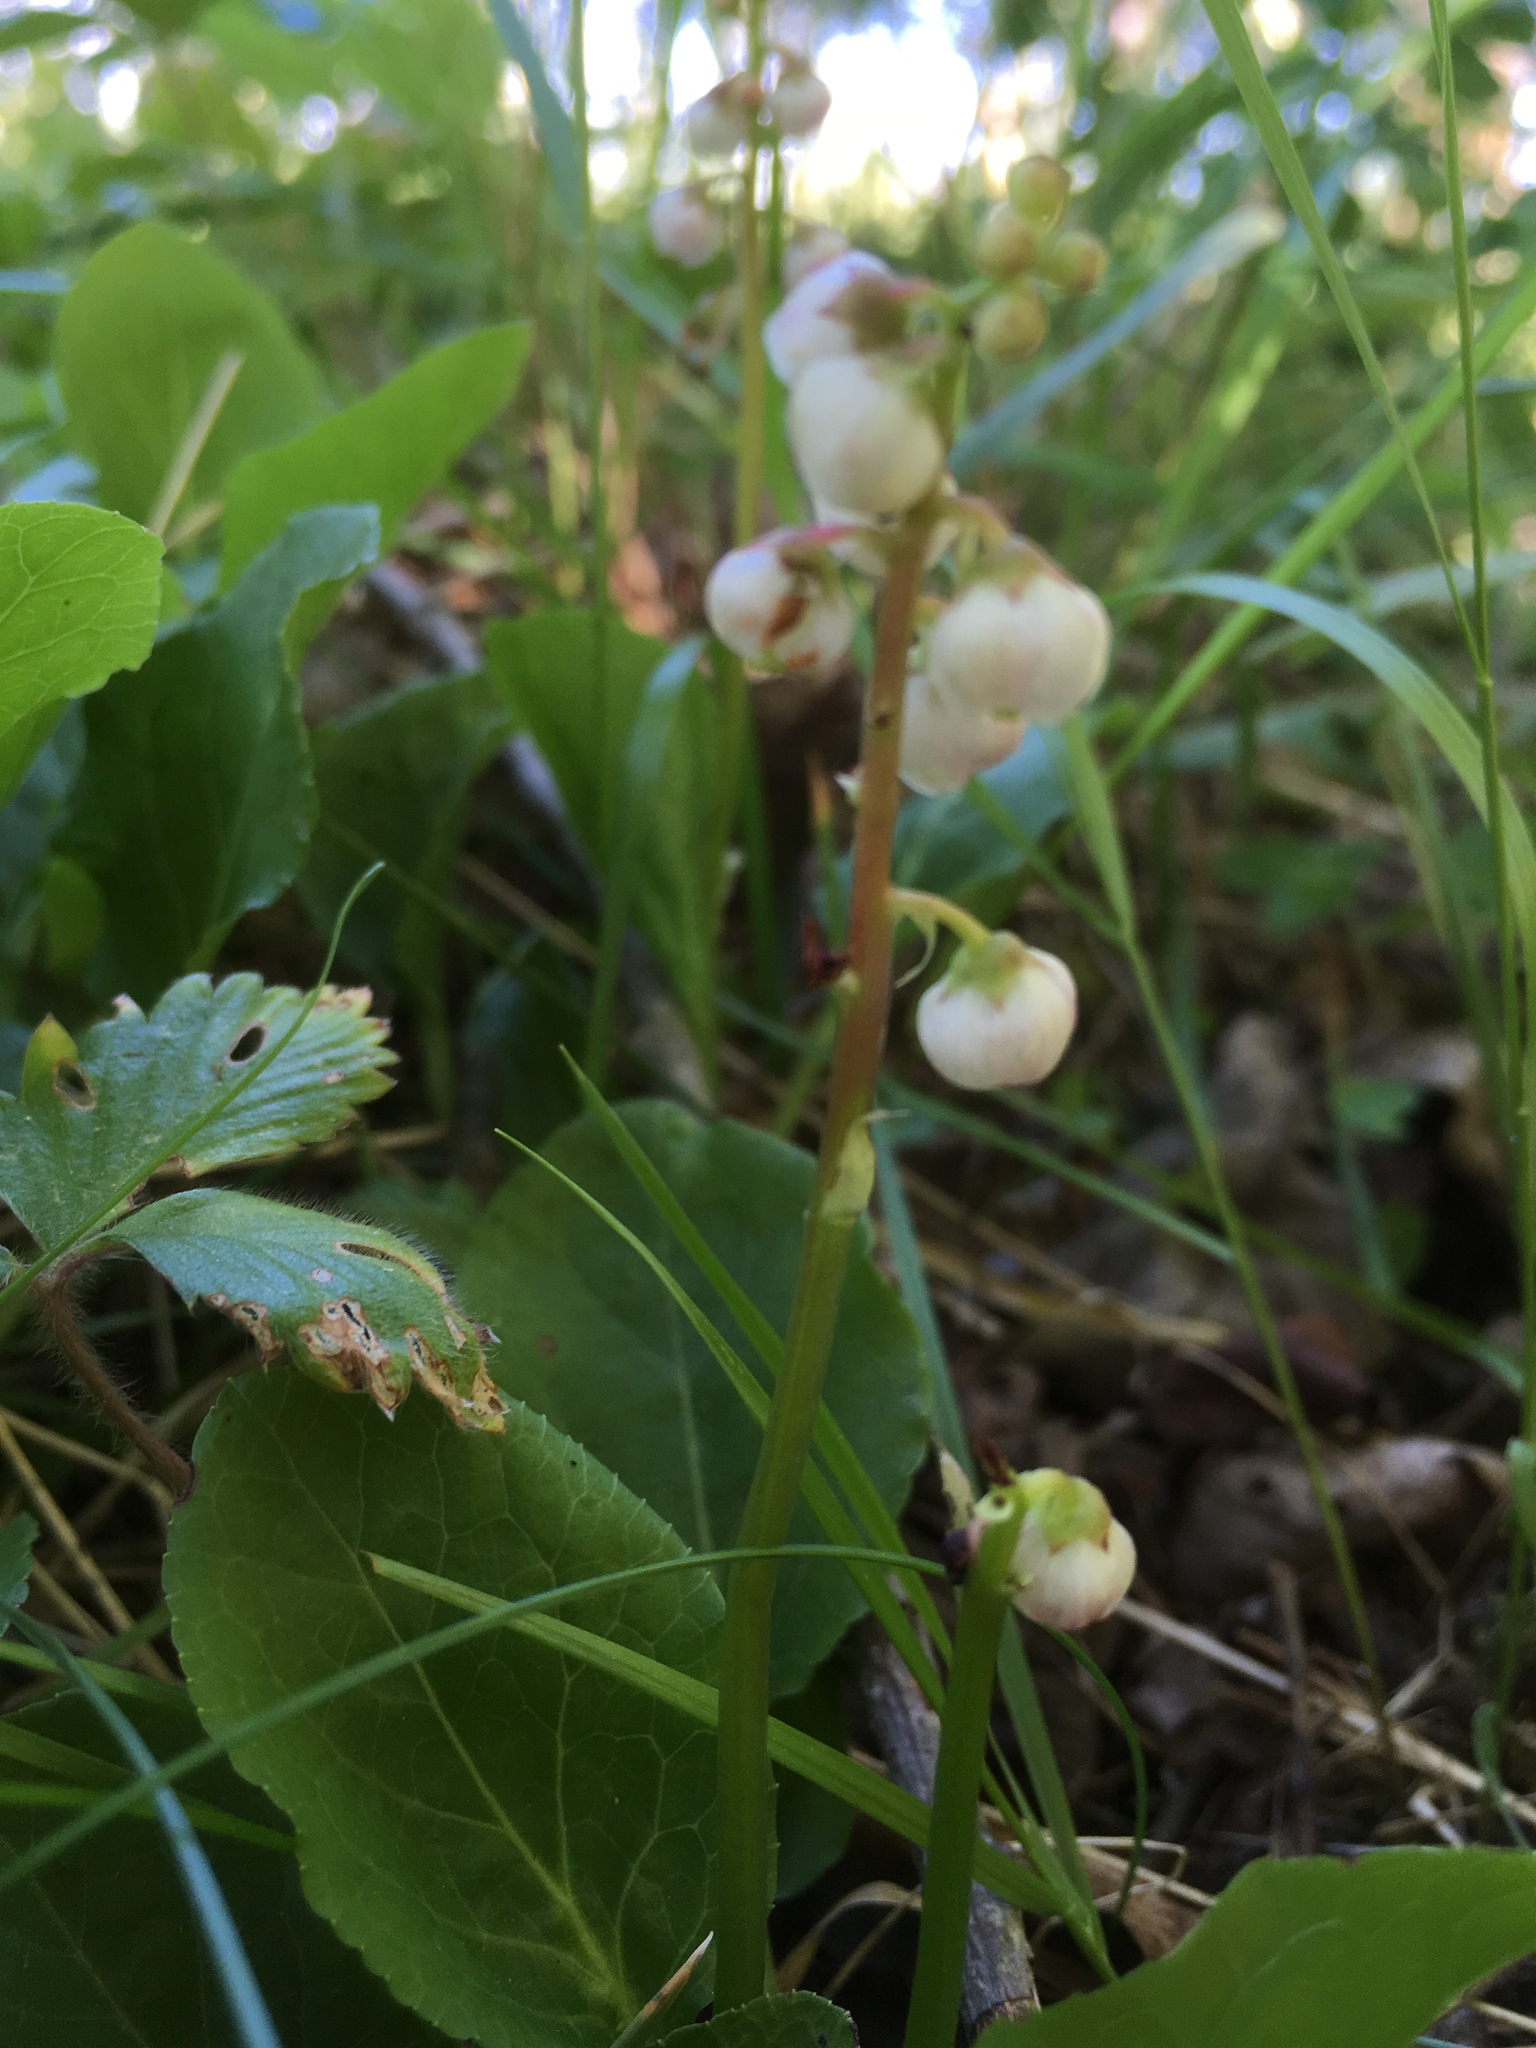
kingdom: Plantae
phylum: Tracheophyta
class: Magnoliopsida
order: Ericales
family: Ericaceae
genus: Pyrola
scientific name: Pyrola minor
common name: Common wintergreen
